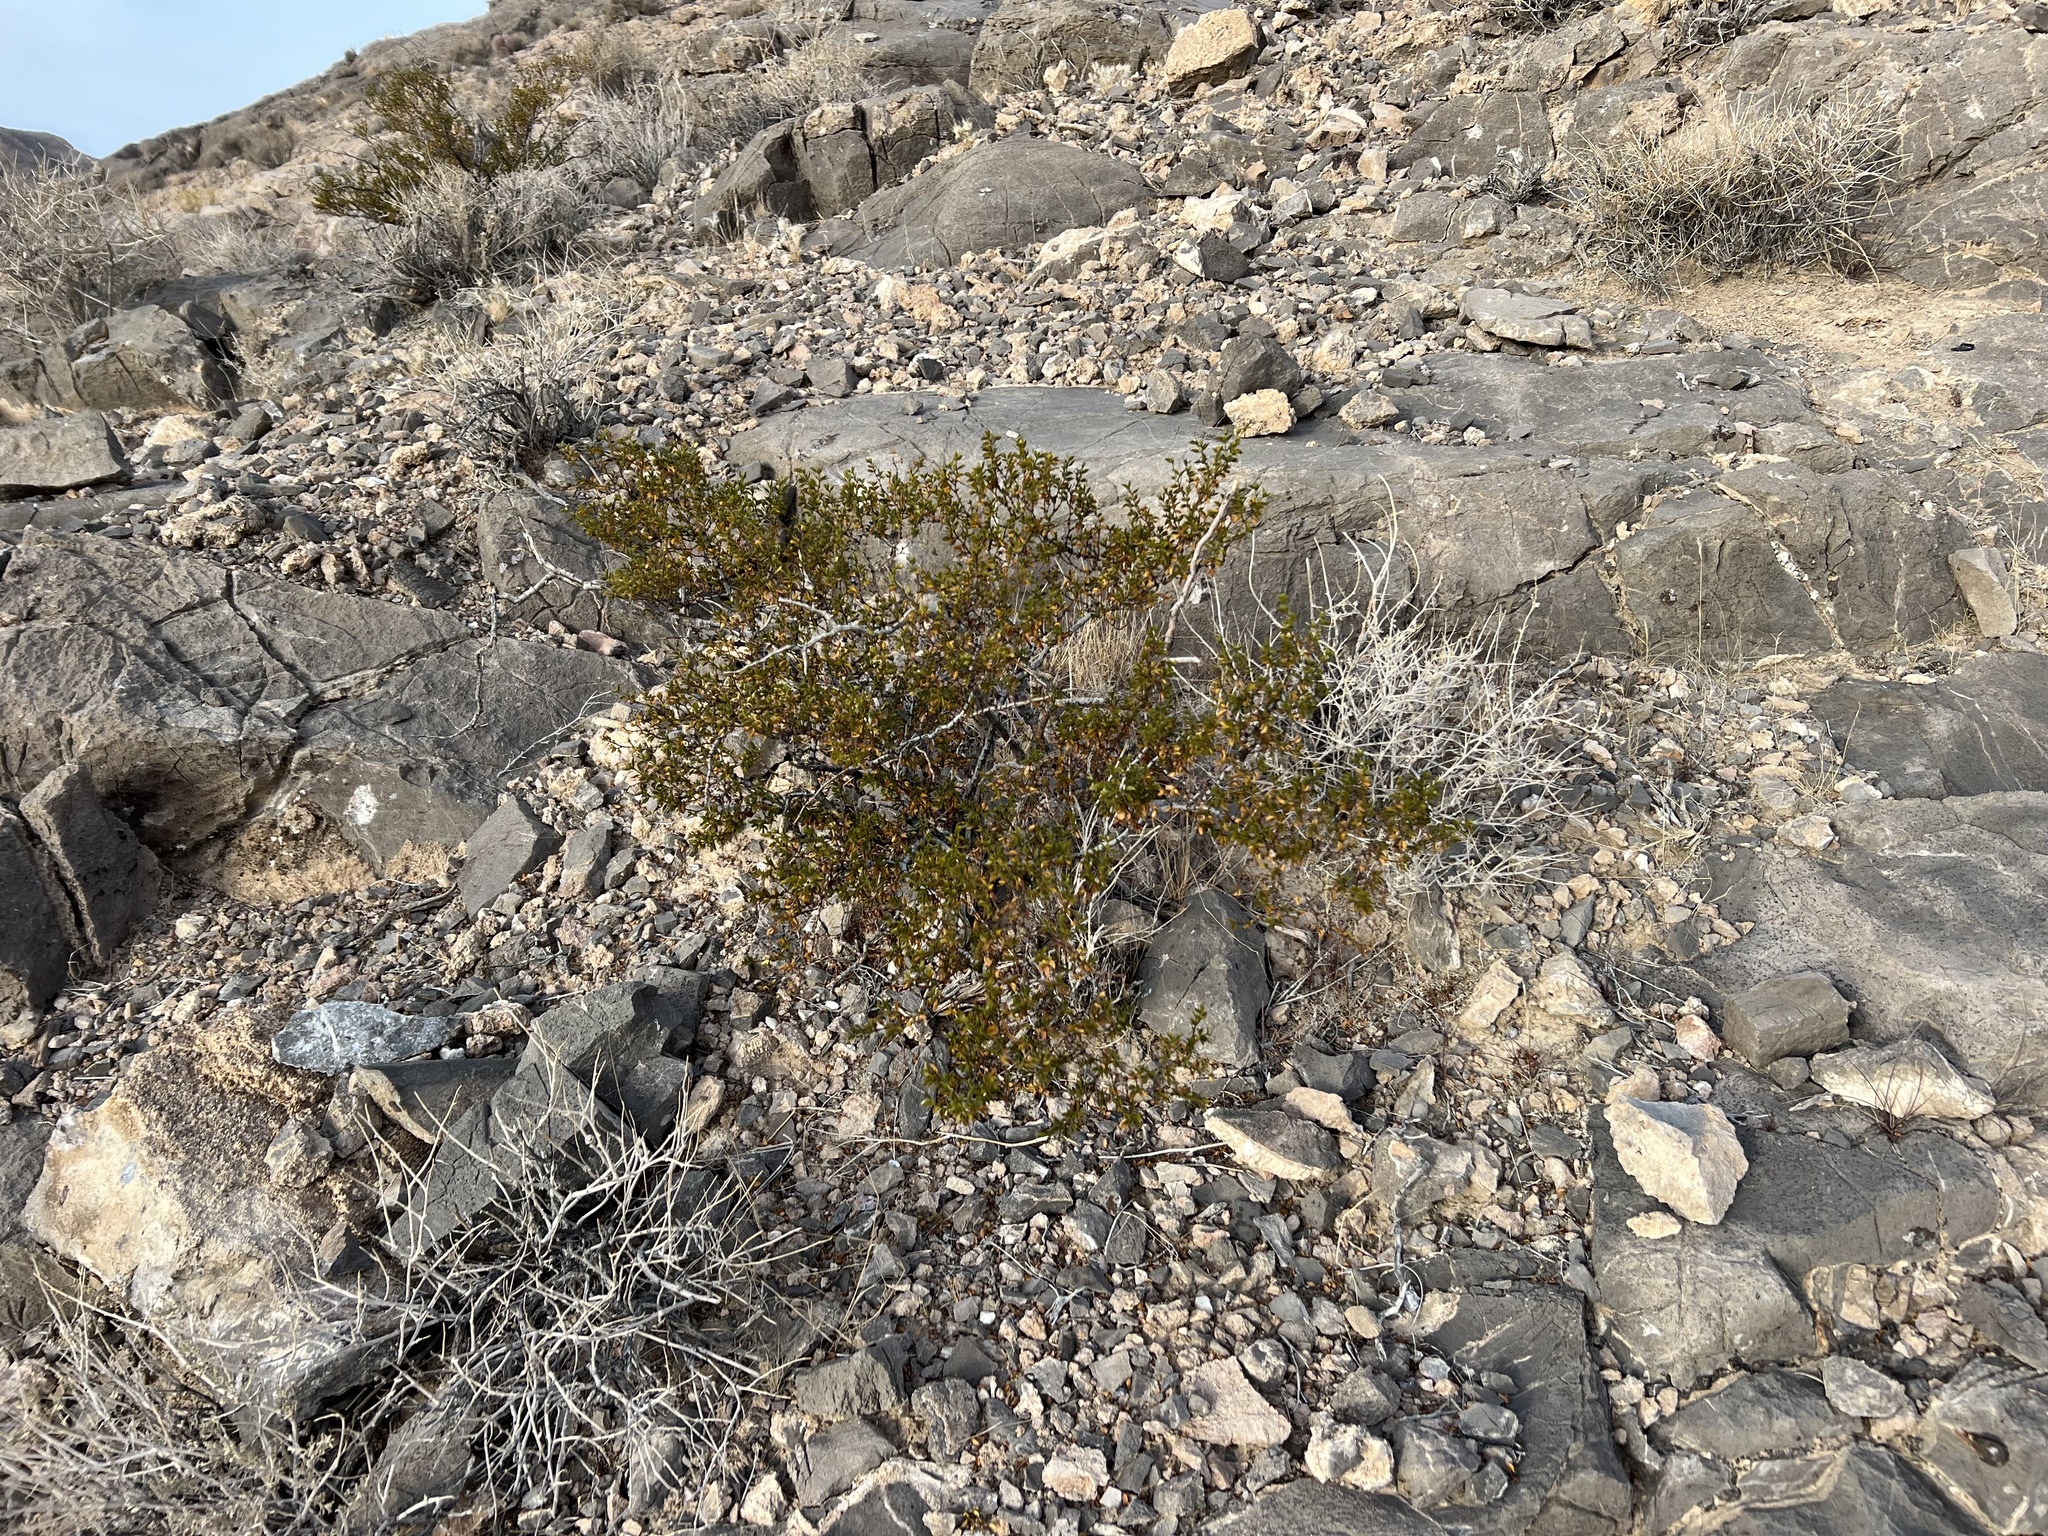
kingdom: Plantae
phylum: Tracheophyta
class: Magnoliopsida
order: Zygophyllales
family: Zygophyllaceae
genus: Larrea
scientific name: Larrea tridentata
